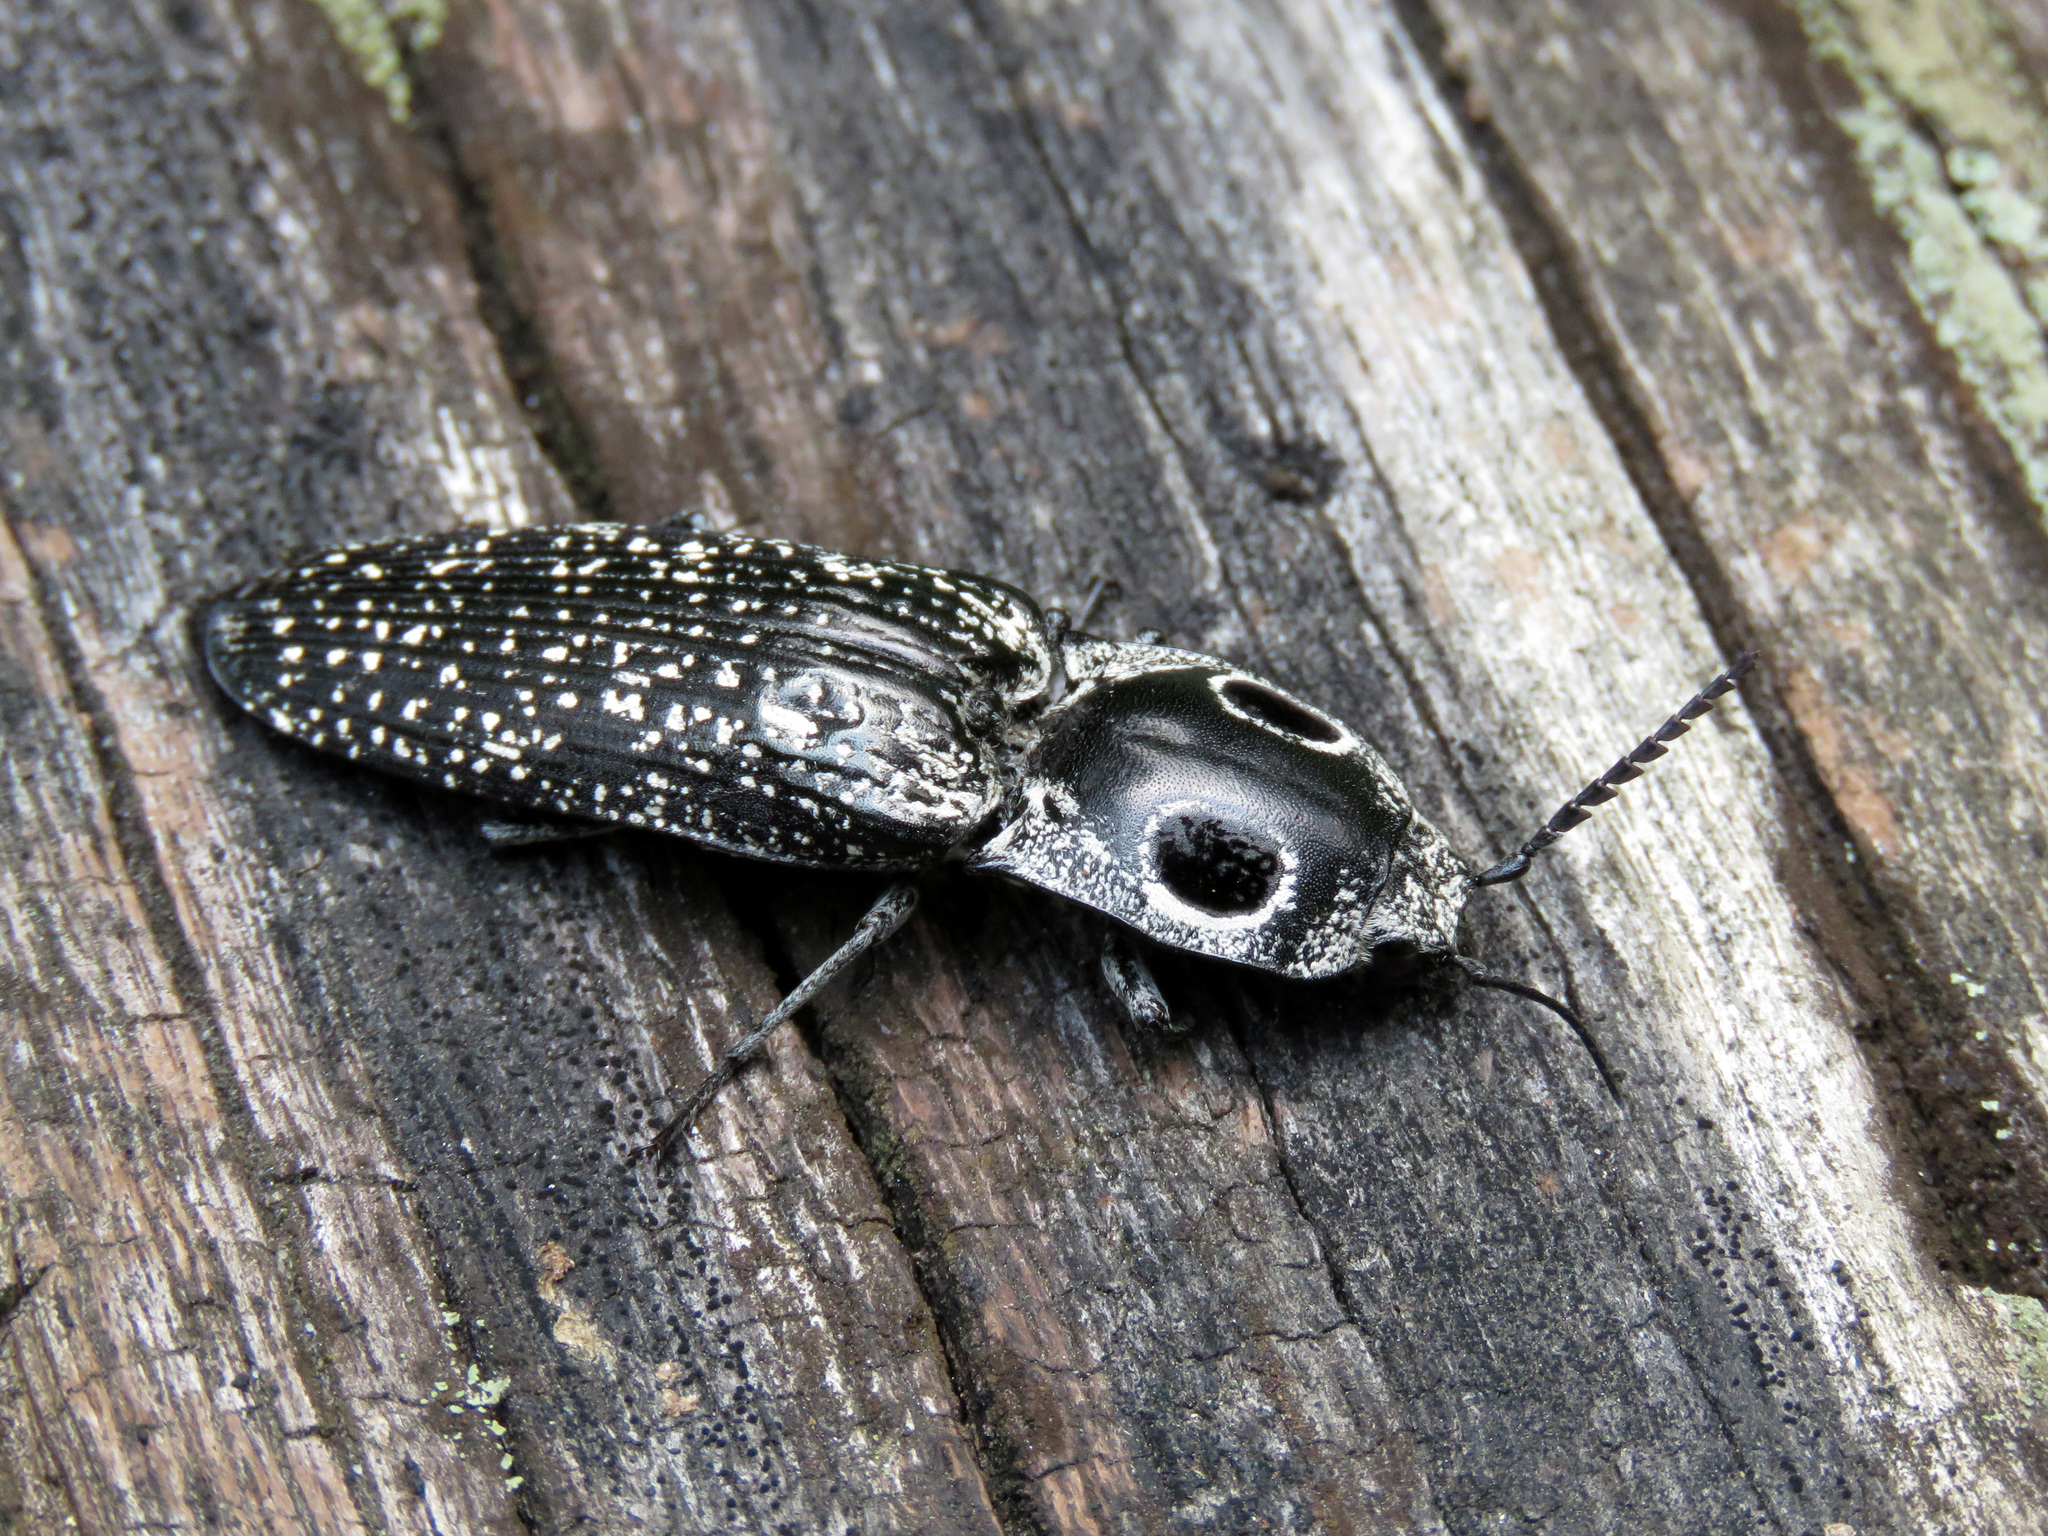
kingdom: Animalia
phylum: Arthropoda
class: Insecta
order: Coleoptera
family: Elateridae
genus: Alaus
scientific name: Alaus oculatus
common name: Eastern eyed click beetle
